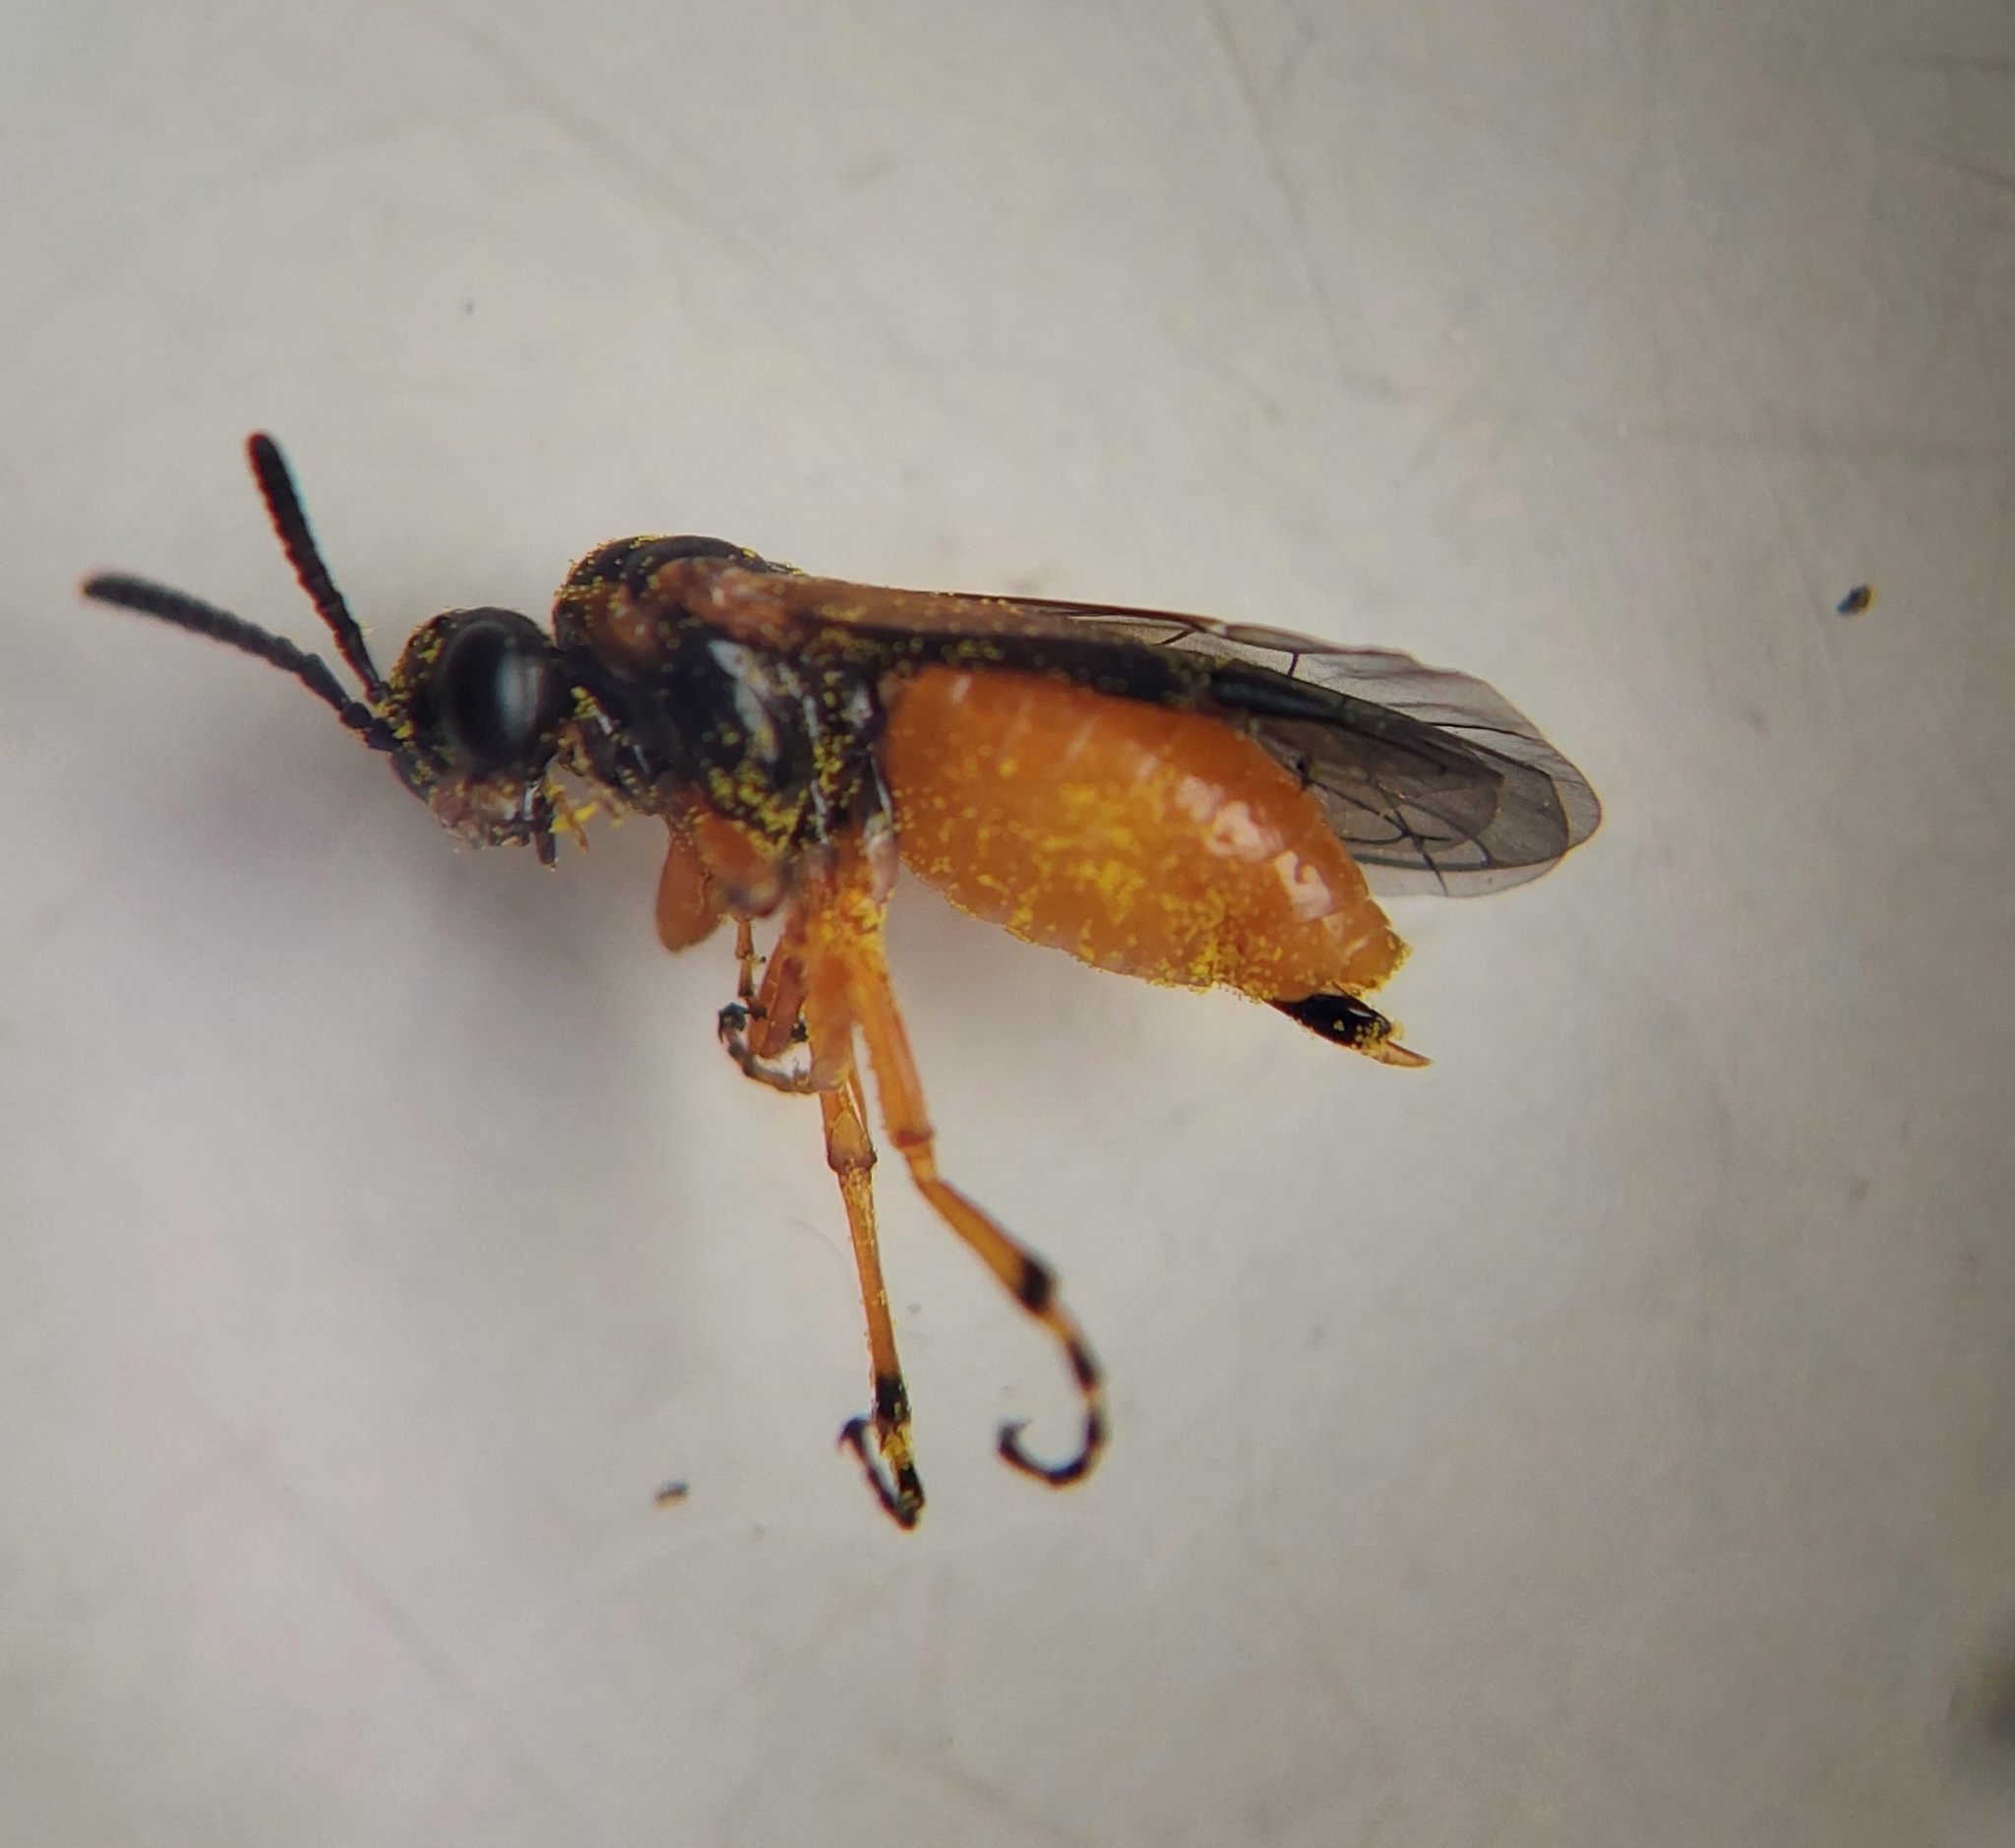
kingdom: Animalia
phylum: Arthropoda
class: Insecta
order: Hymenoptera
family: Tenthredinidae
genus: Athalia
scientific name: Athalia bicolor
